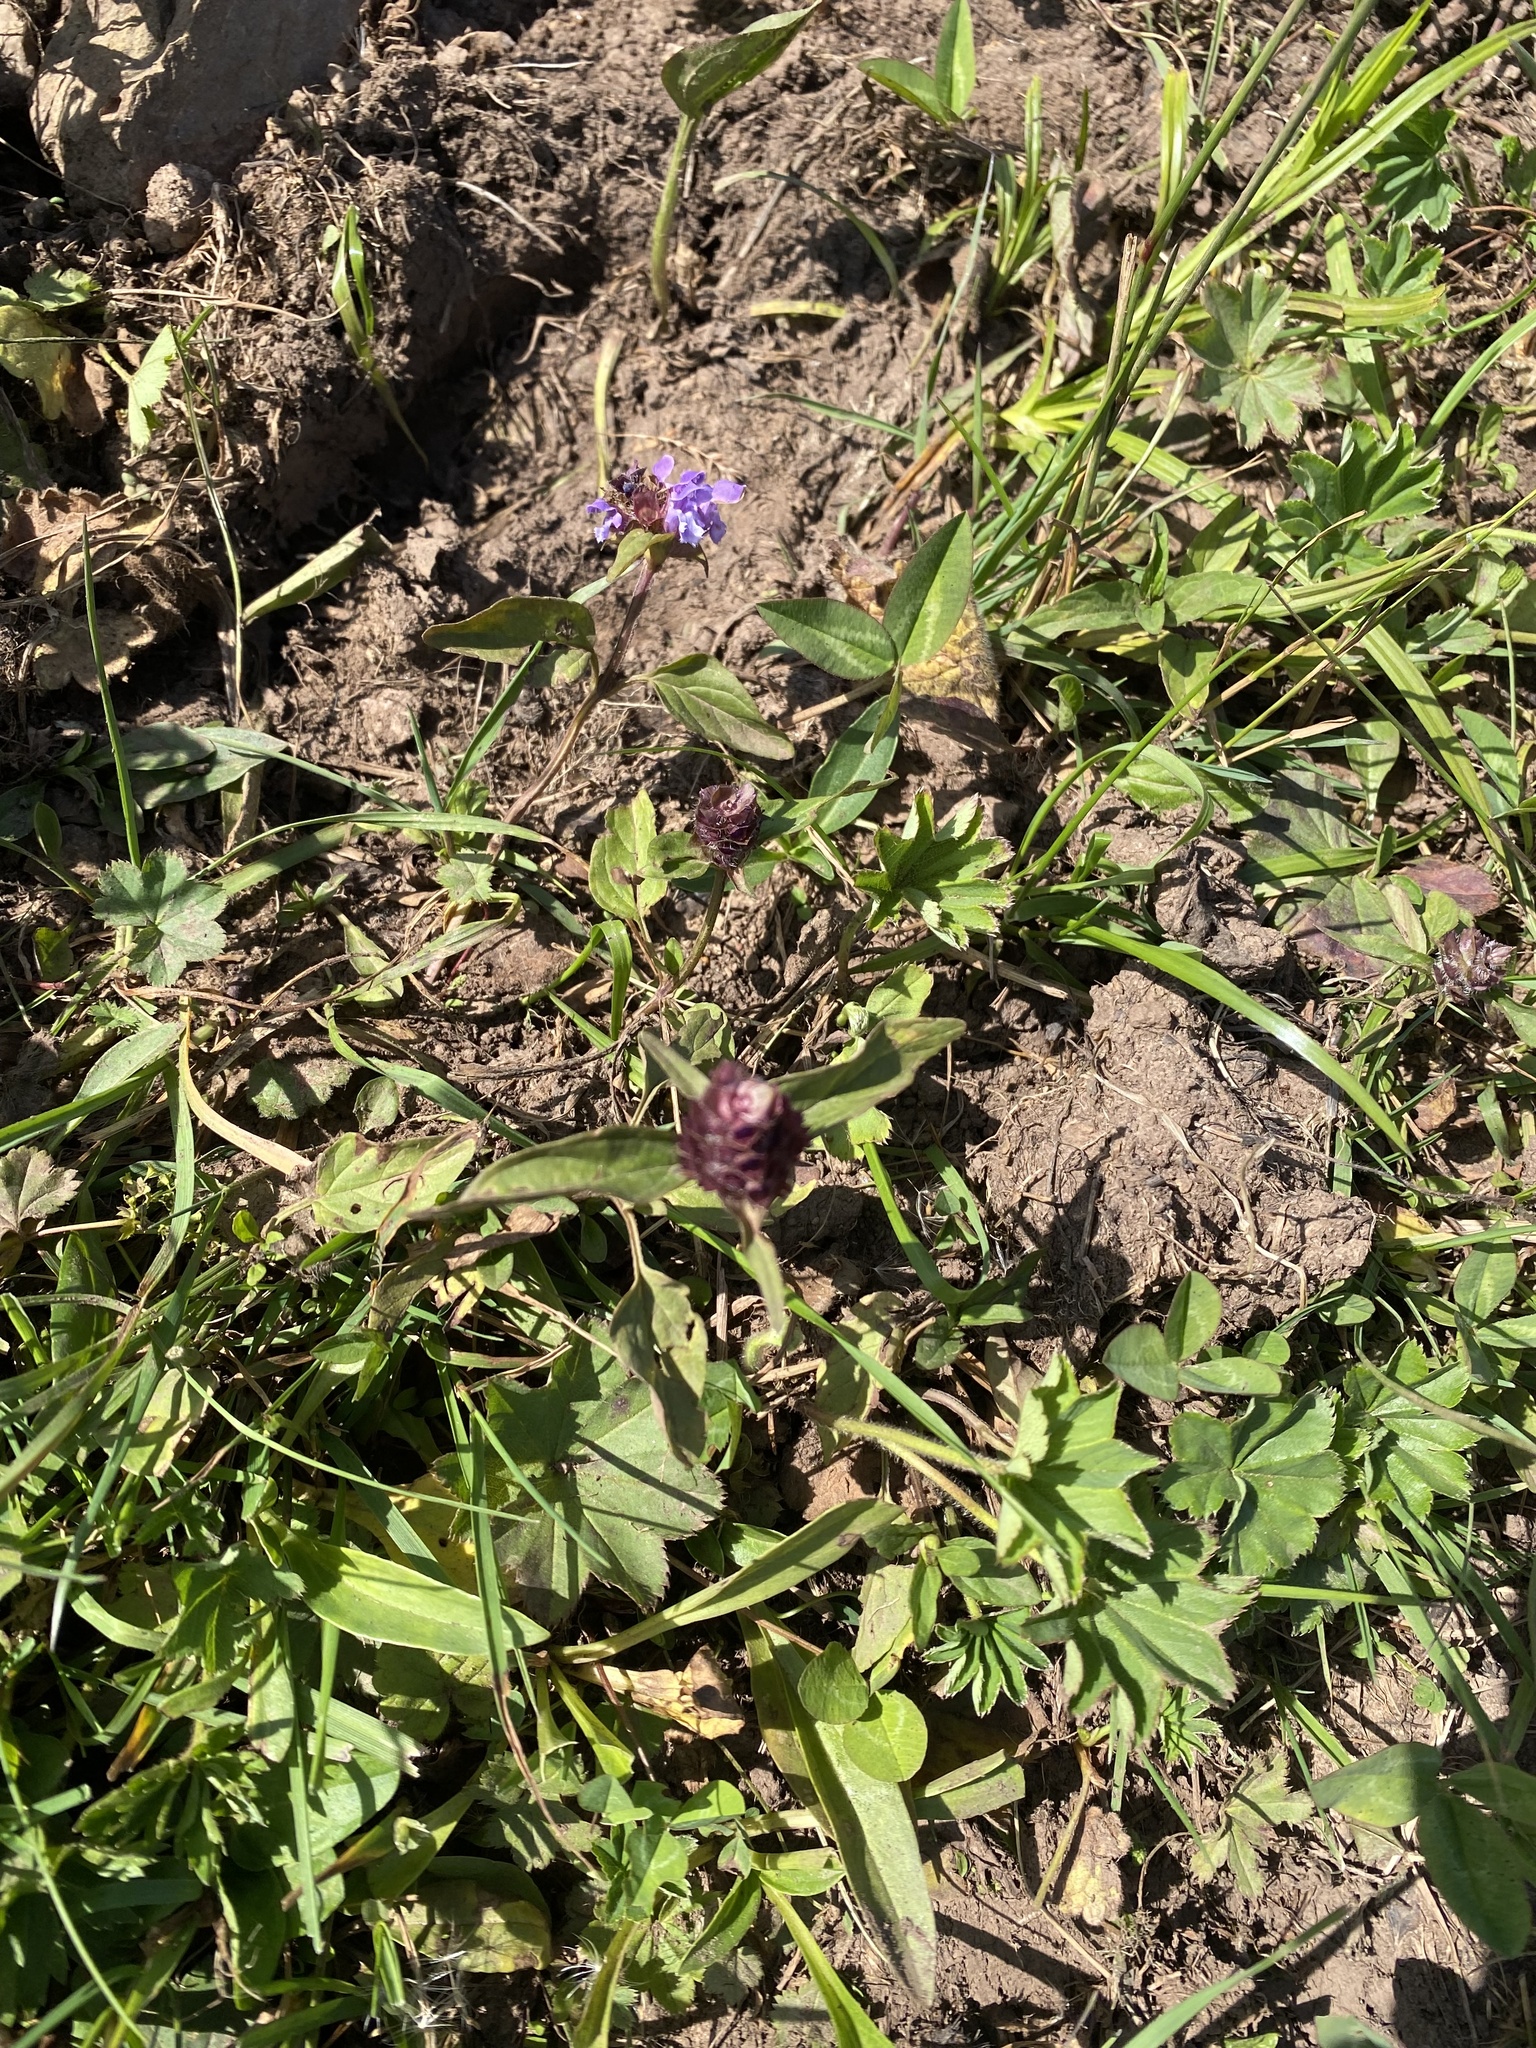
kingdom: Plantae
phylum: Tracheophyta
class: Magnoliopsida
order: Lamiales
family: Lamiaceae
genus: Prunella
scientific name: Prunella vulgaris
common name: Heal-all
